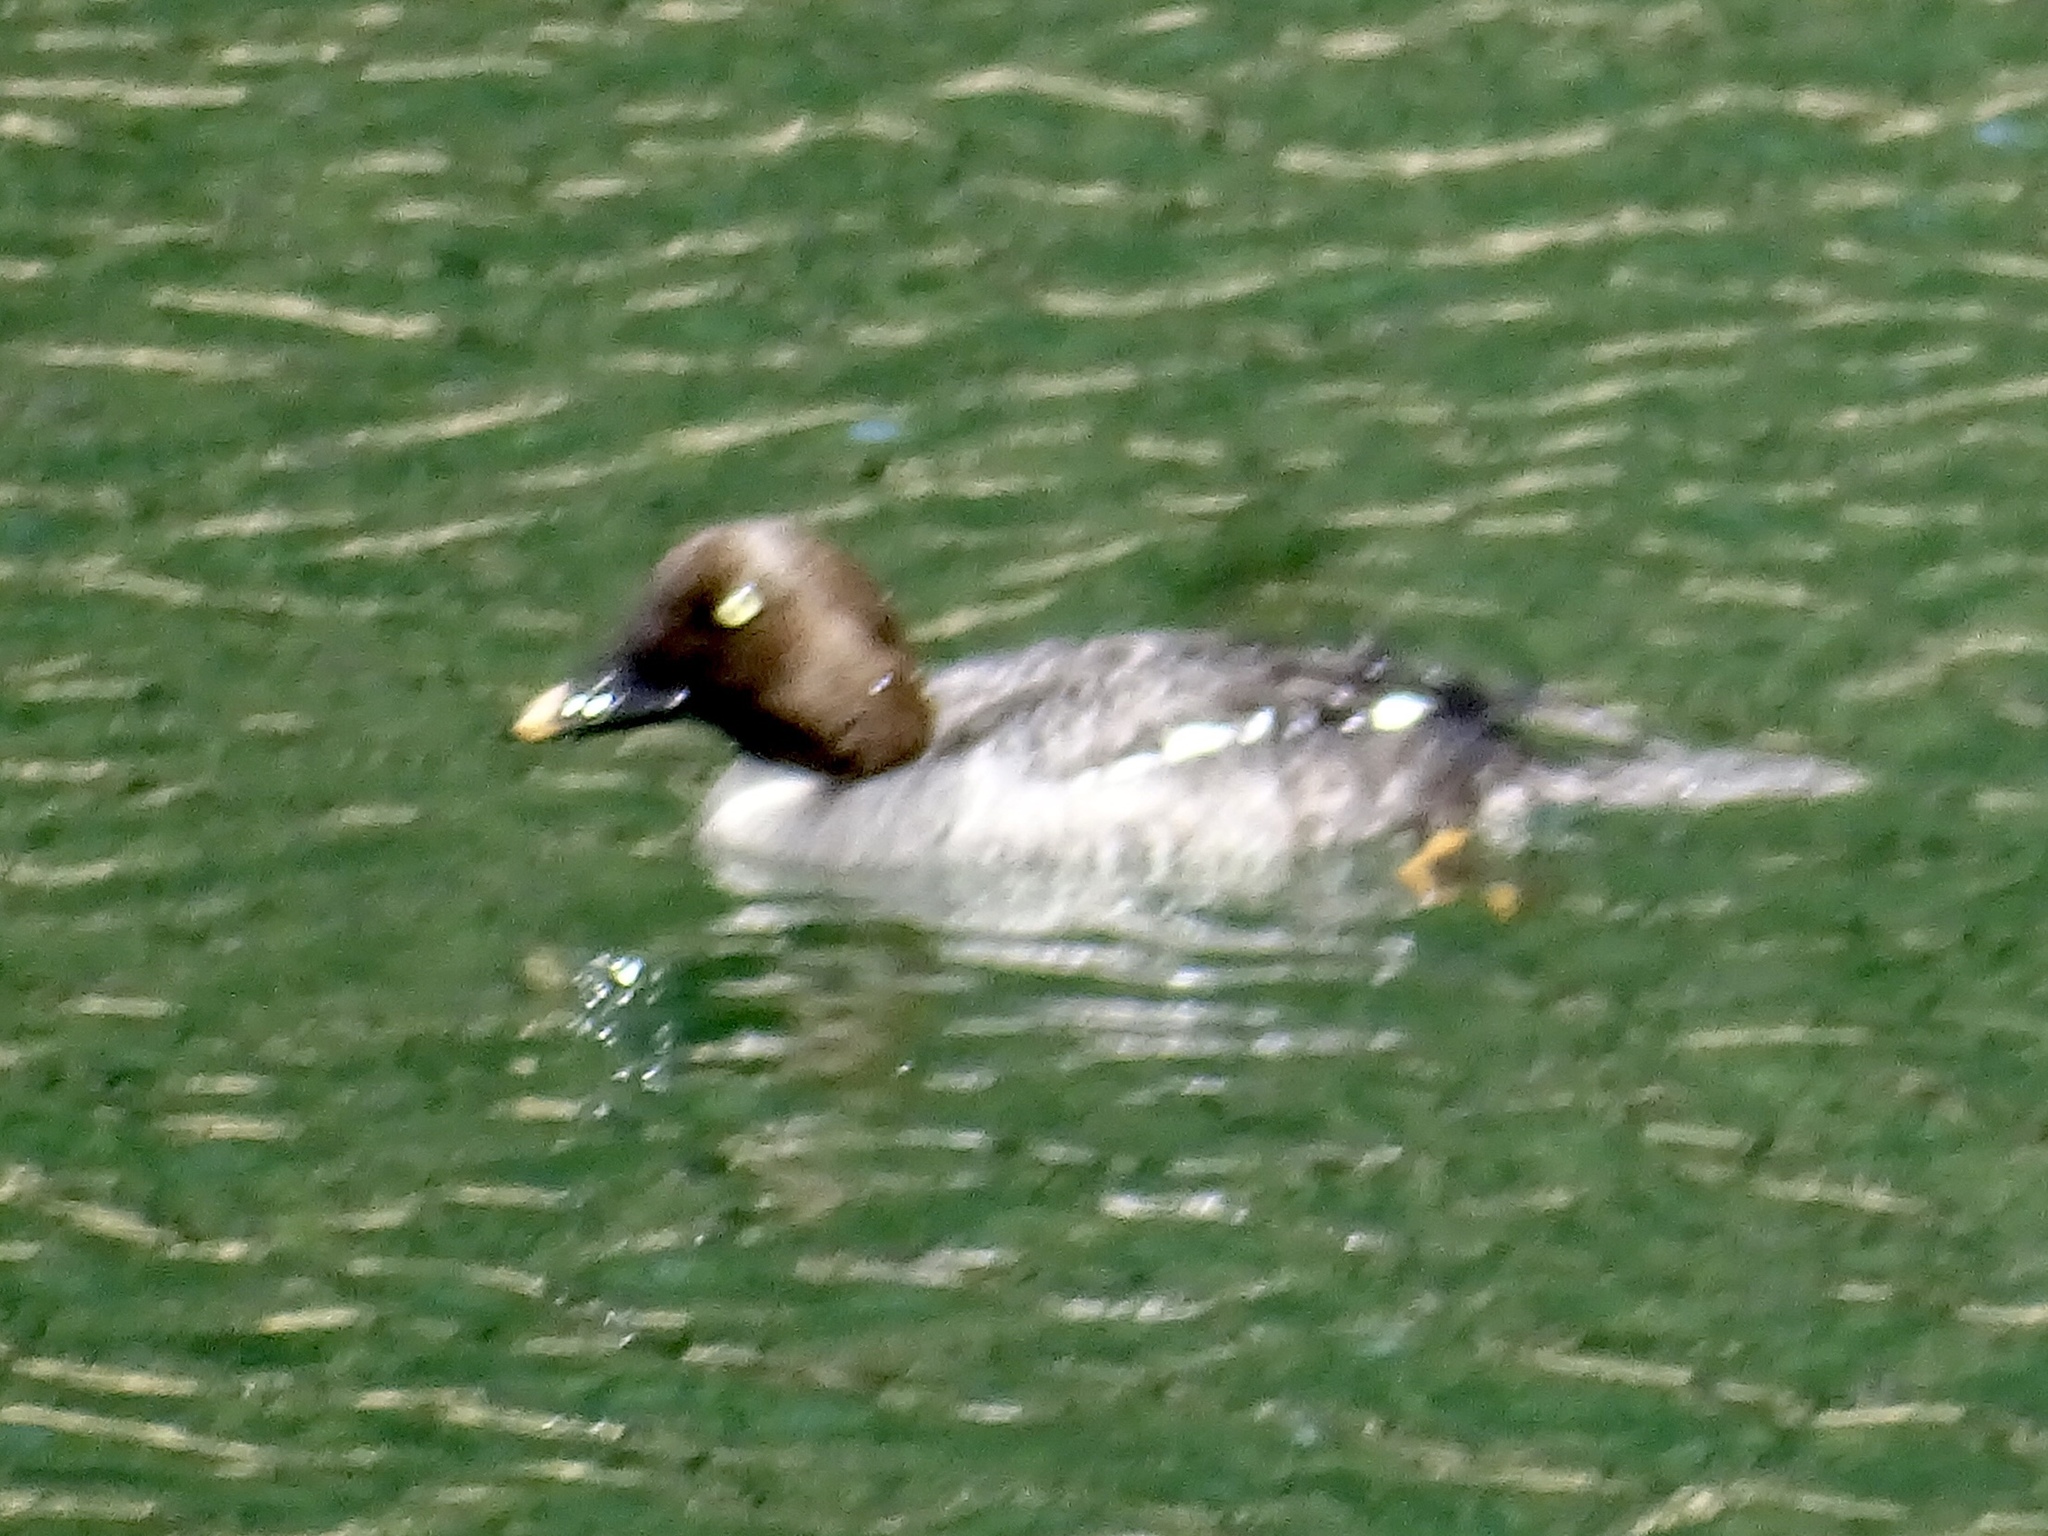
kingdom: Animalia
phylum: Chordata
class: Aves
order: Anseriformes
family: Anatidae
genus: Bucephala
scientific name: Bucephala clangula
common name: Common goldeneye
